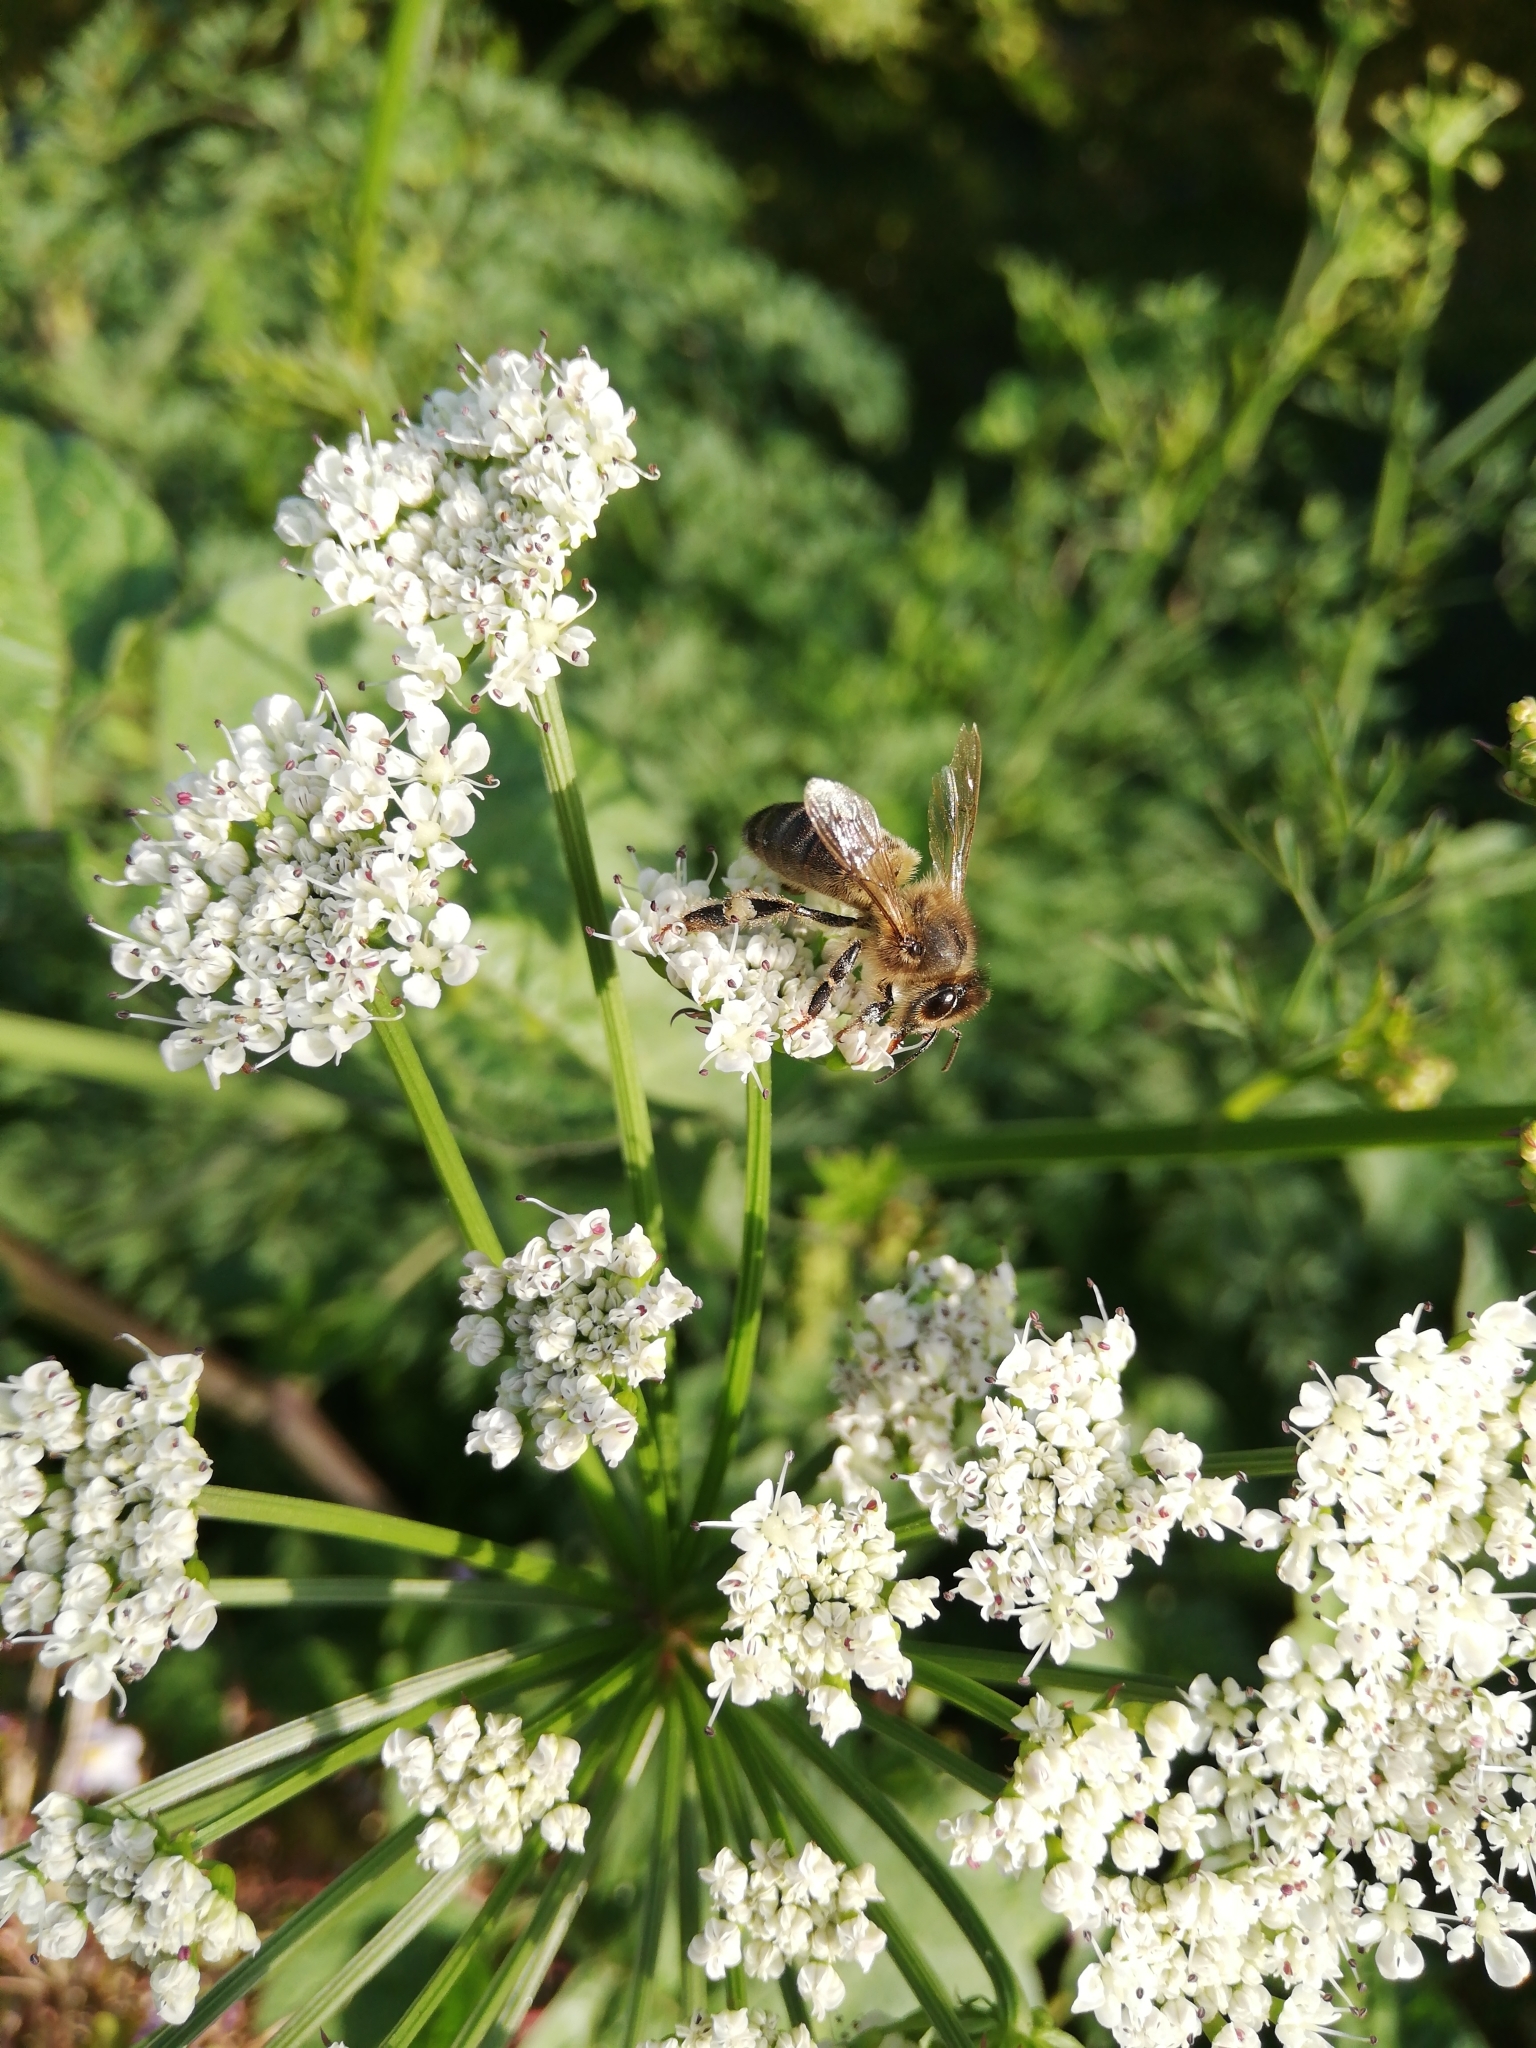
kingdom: Animalia
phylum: Arthropoda
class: Insecta
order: Hymenoptera
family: Apidae
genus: Apis
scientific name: Apis mellifera
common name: Honey bee
